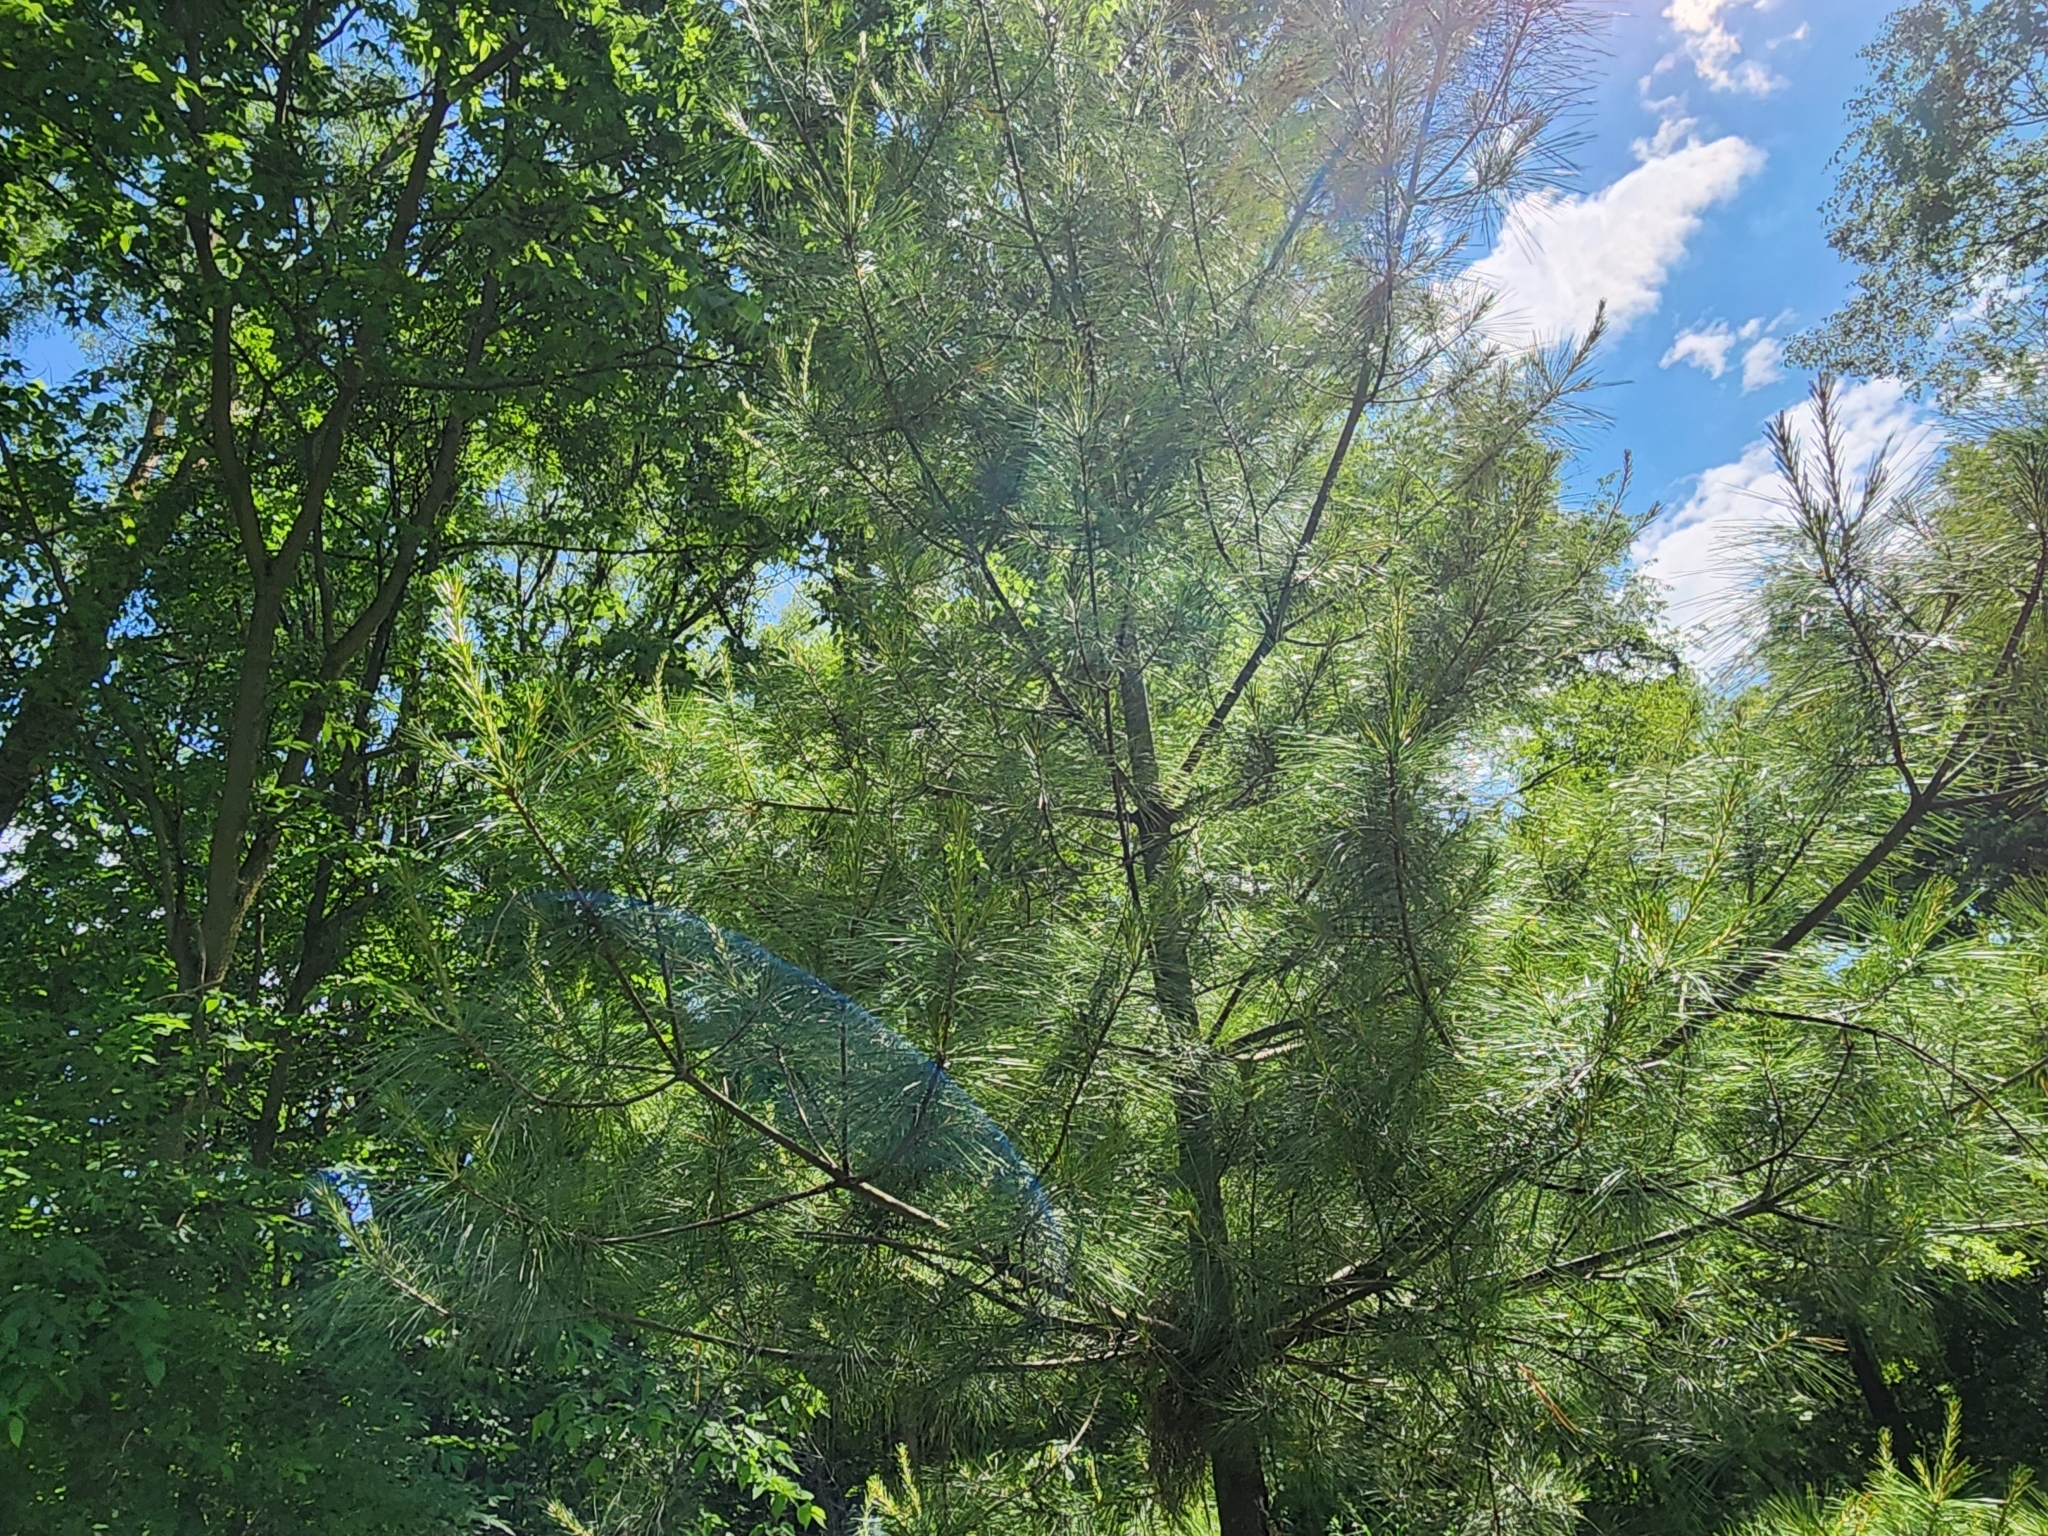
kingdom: Plantae
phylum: Tracheophyta
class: Pinopsida
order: Pinales
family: Pinaceae
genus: Pinus
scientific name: Pinus strobus
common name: Weymouth pine
